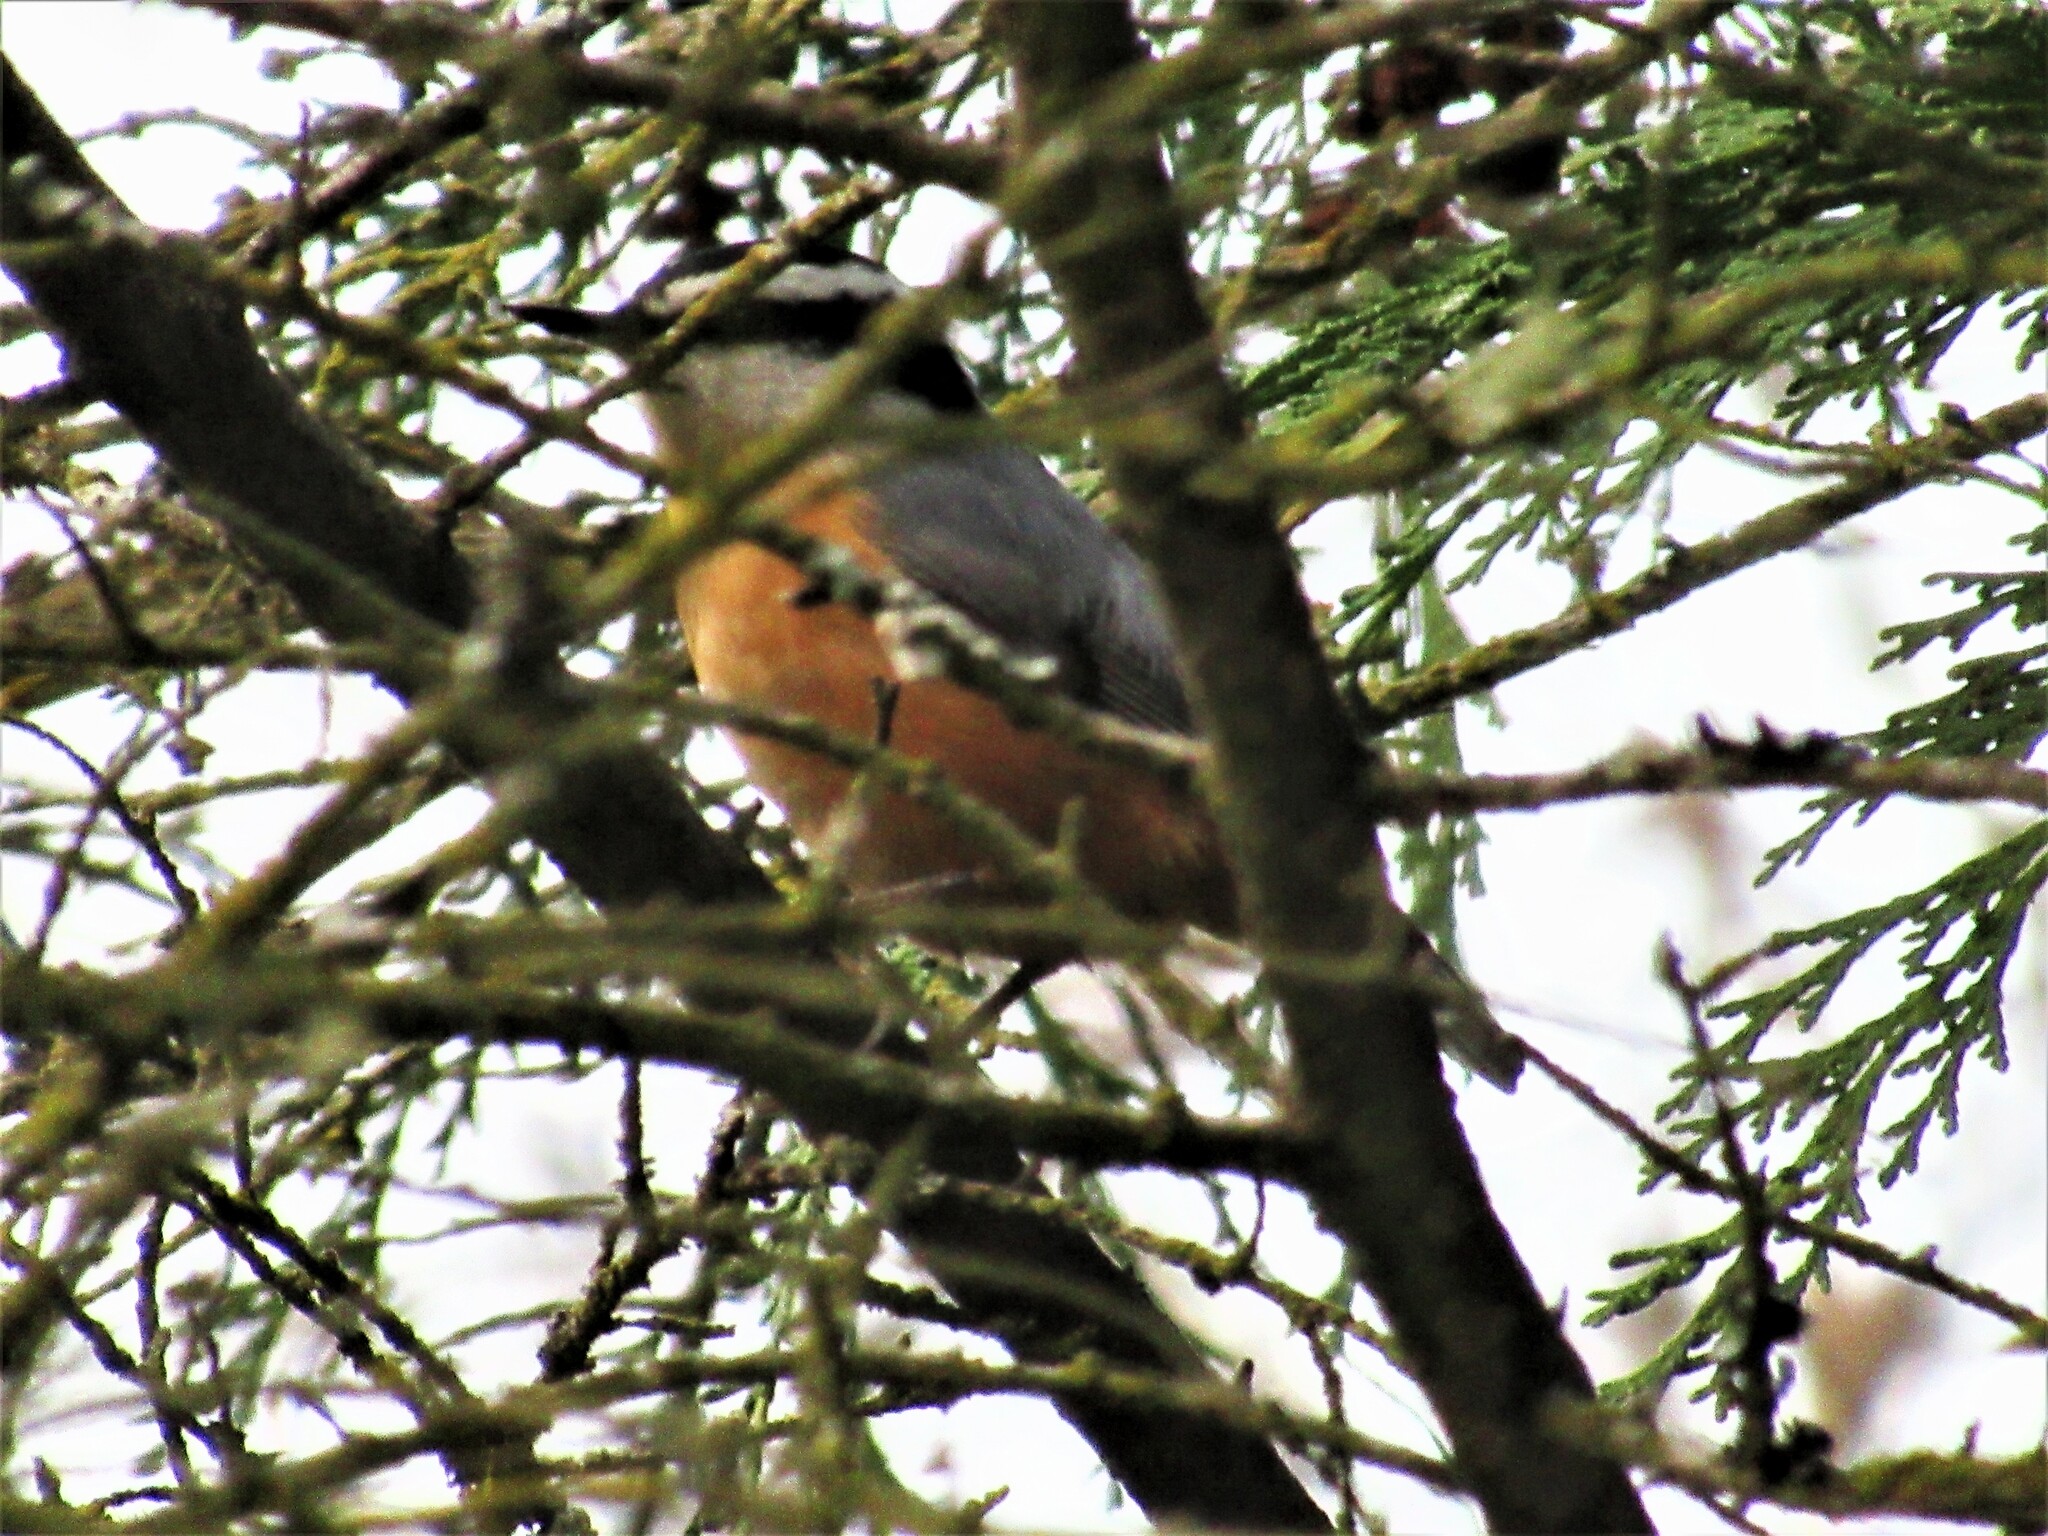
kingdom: Animalia
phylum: Chordata
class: Aves
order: Passeriformes
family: Sittidae
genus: Sitta
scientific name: Sitta canadensis
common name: Red-breasted nuthatch
